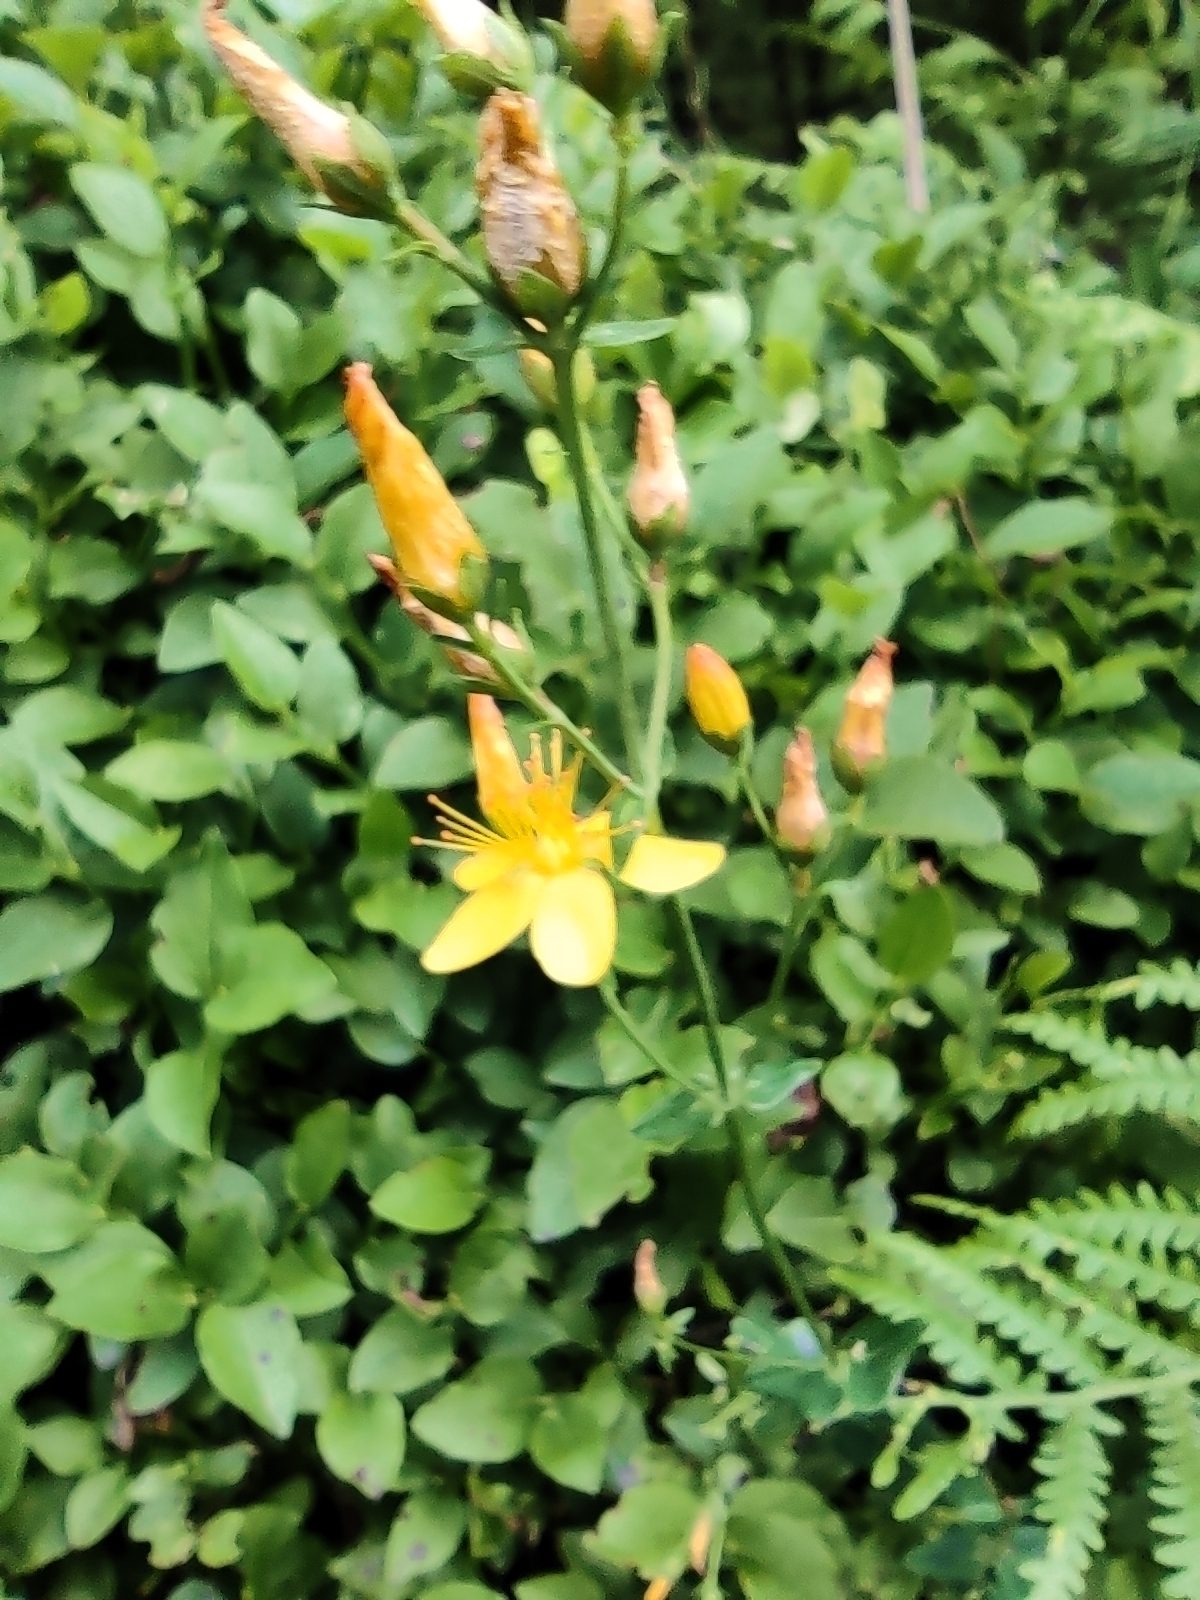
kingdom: Plantae
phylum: Tracheophyta
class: Magnoliopsida
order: Malpighiales
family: Hypericaceae
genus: Hypericum
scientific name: Hypericum pulchrum
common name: Slender st. john's-wort
